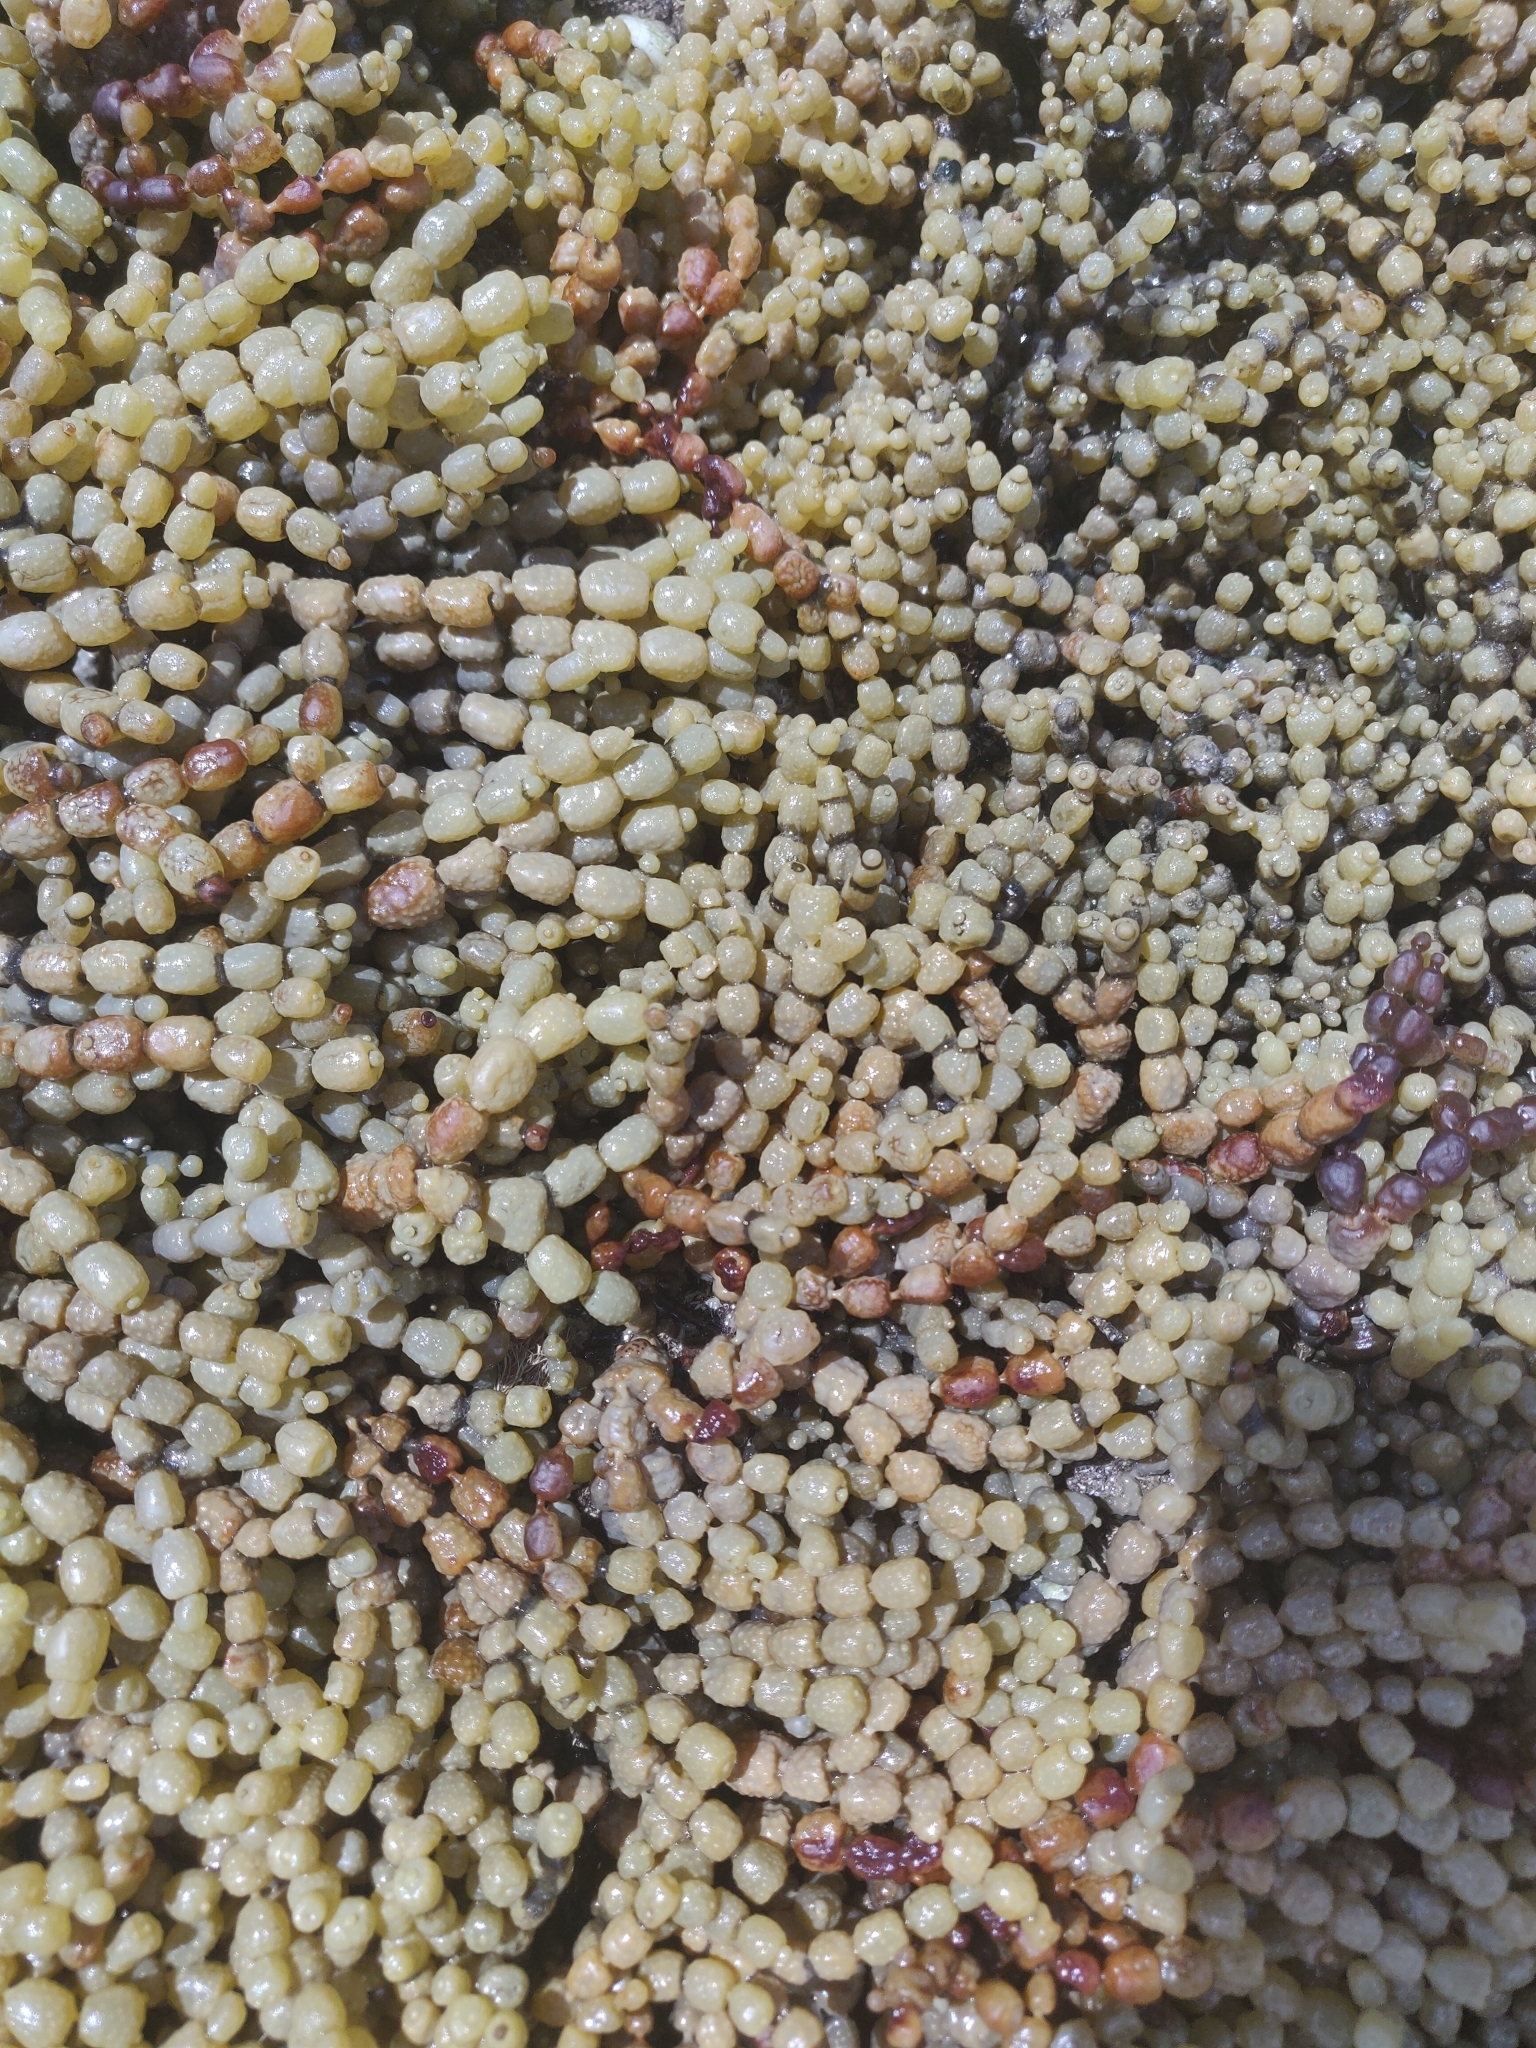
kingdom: Chromista
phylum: Ochrophyta
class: Phaeophyceae
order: Fucales
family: Hormosiraceae
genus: Hormosira
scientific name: Hormosira banksii
